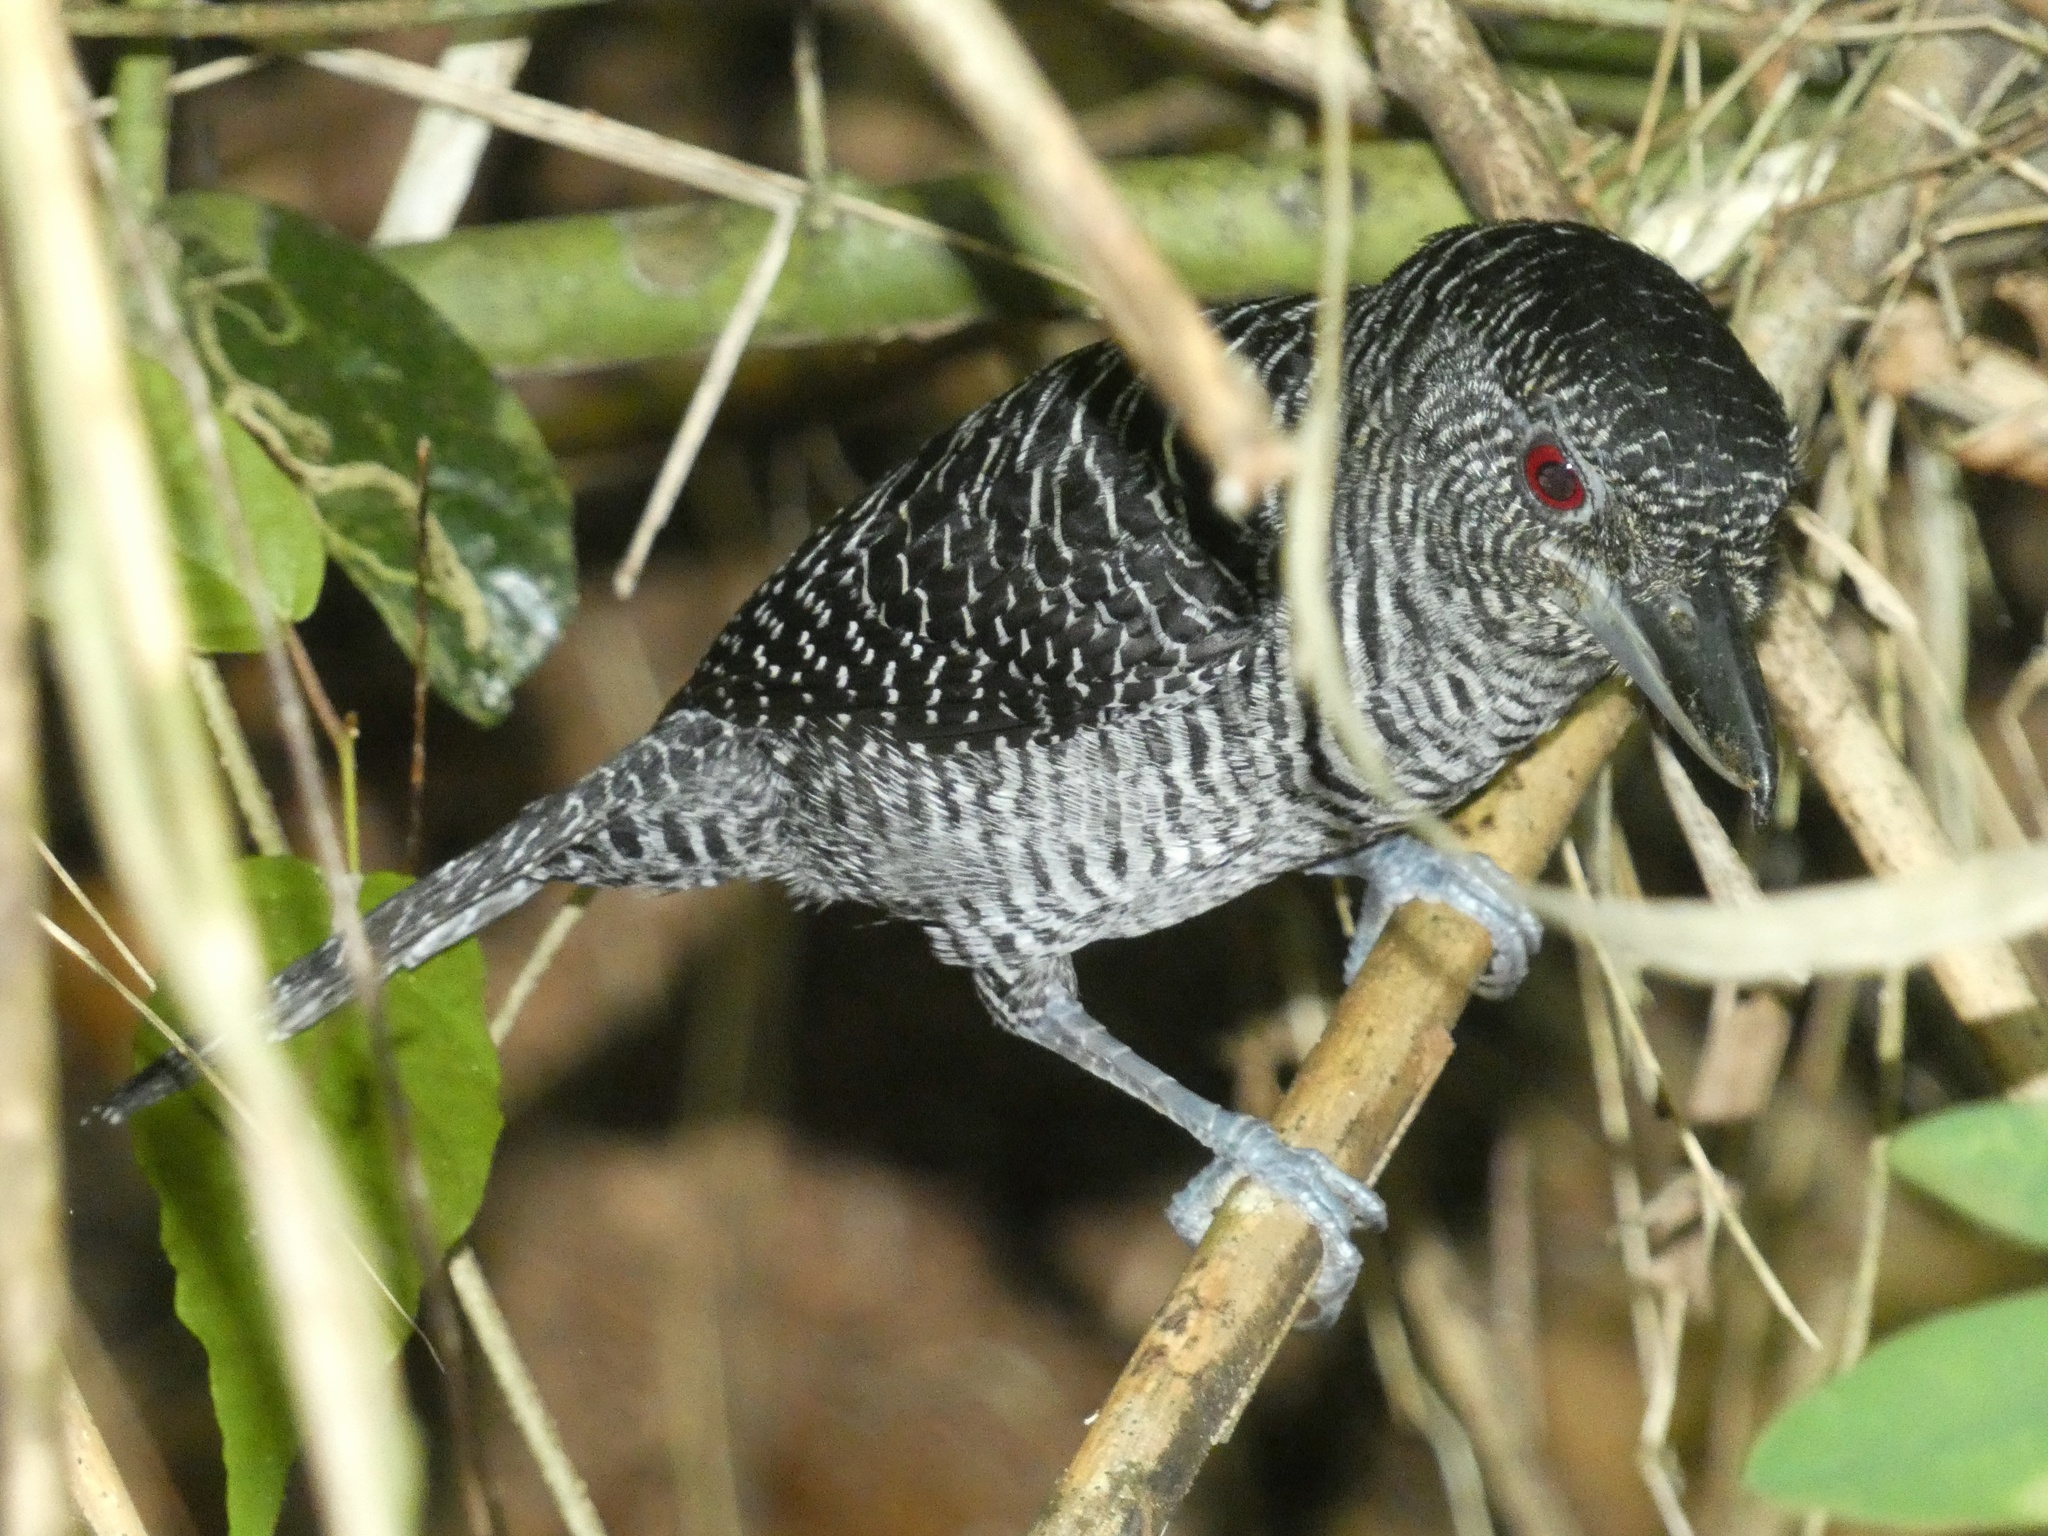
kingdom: Animalia
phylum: Chordata
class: Aves
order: Passeriformes
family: Thamnophilidae
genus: Cymbilaimus
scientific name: Cymbilaimus lineatus
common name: Fasciated antshrike
